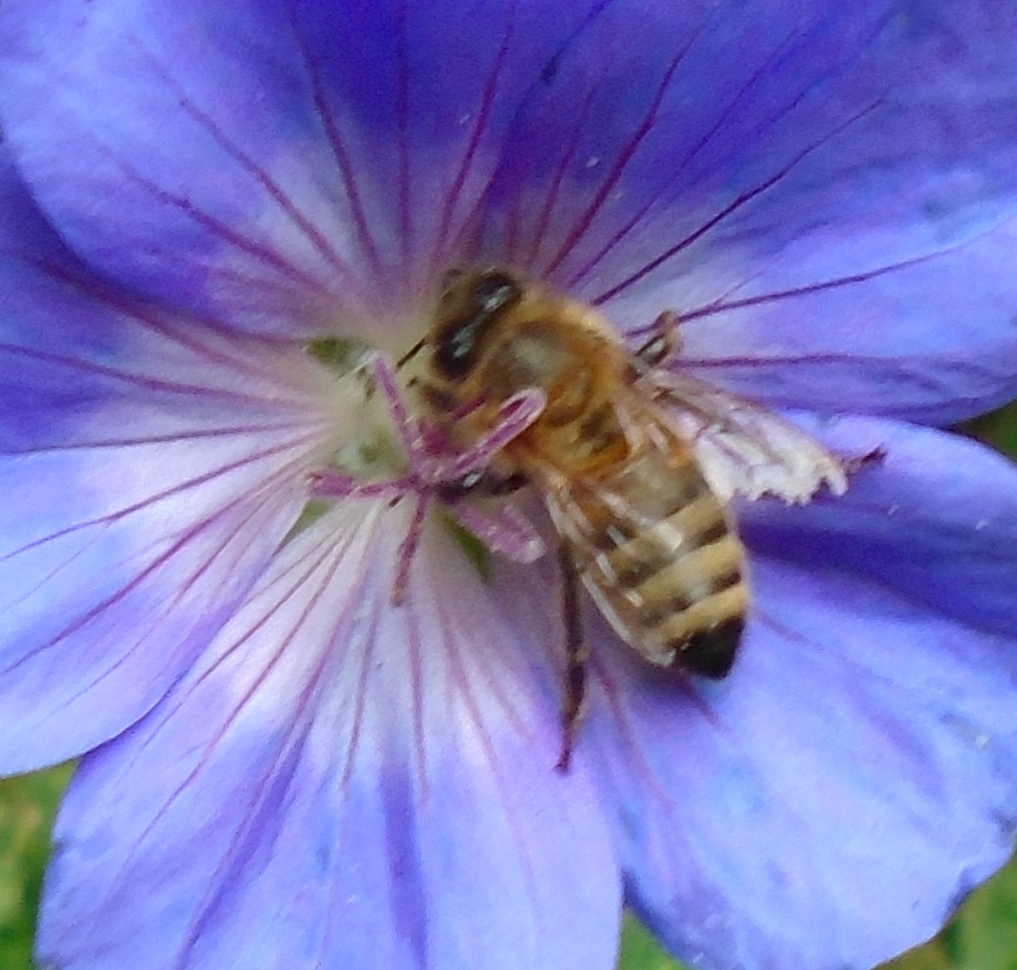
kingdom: Animalia
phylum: Arthropoda
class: Insecta
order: Hymenoptera
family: Apidae
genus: Apis
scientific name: Apis mellifera
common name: Honey bee
